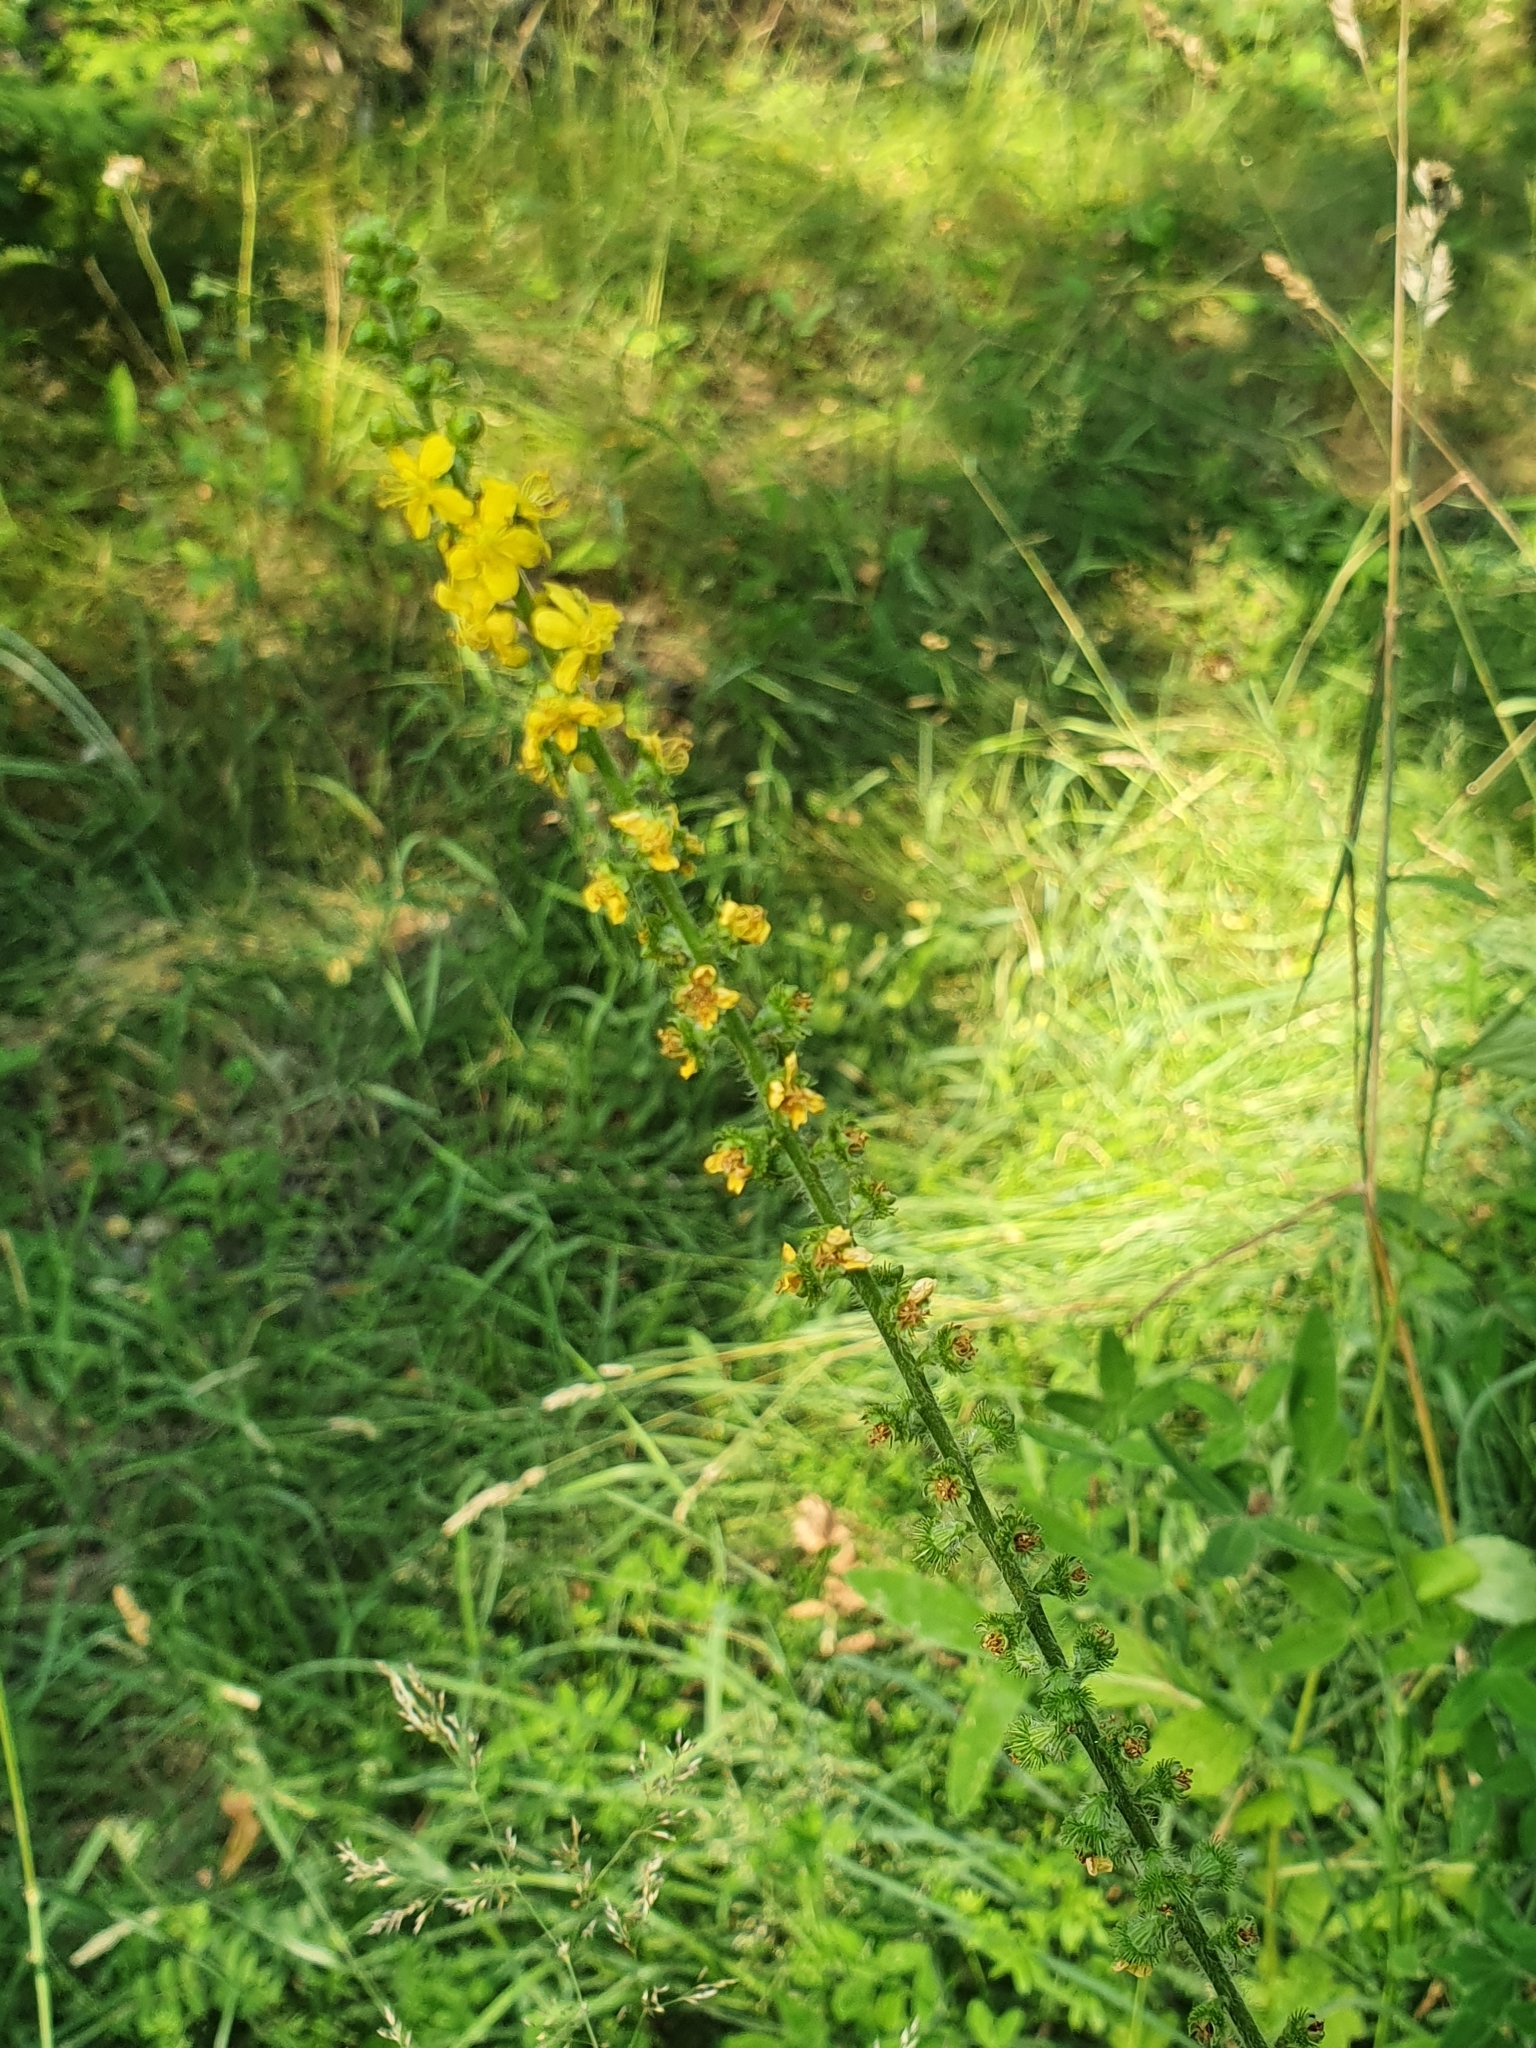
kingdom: Plantae
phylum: Tracheophyta
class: Magnoliopsida
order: Rosales
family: Rosaceae
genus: Agrimonia
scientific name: Agrimonia eupatoria
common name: Agrimony
